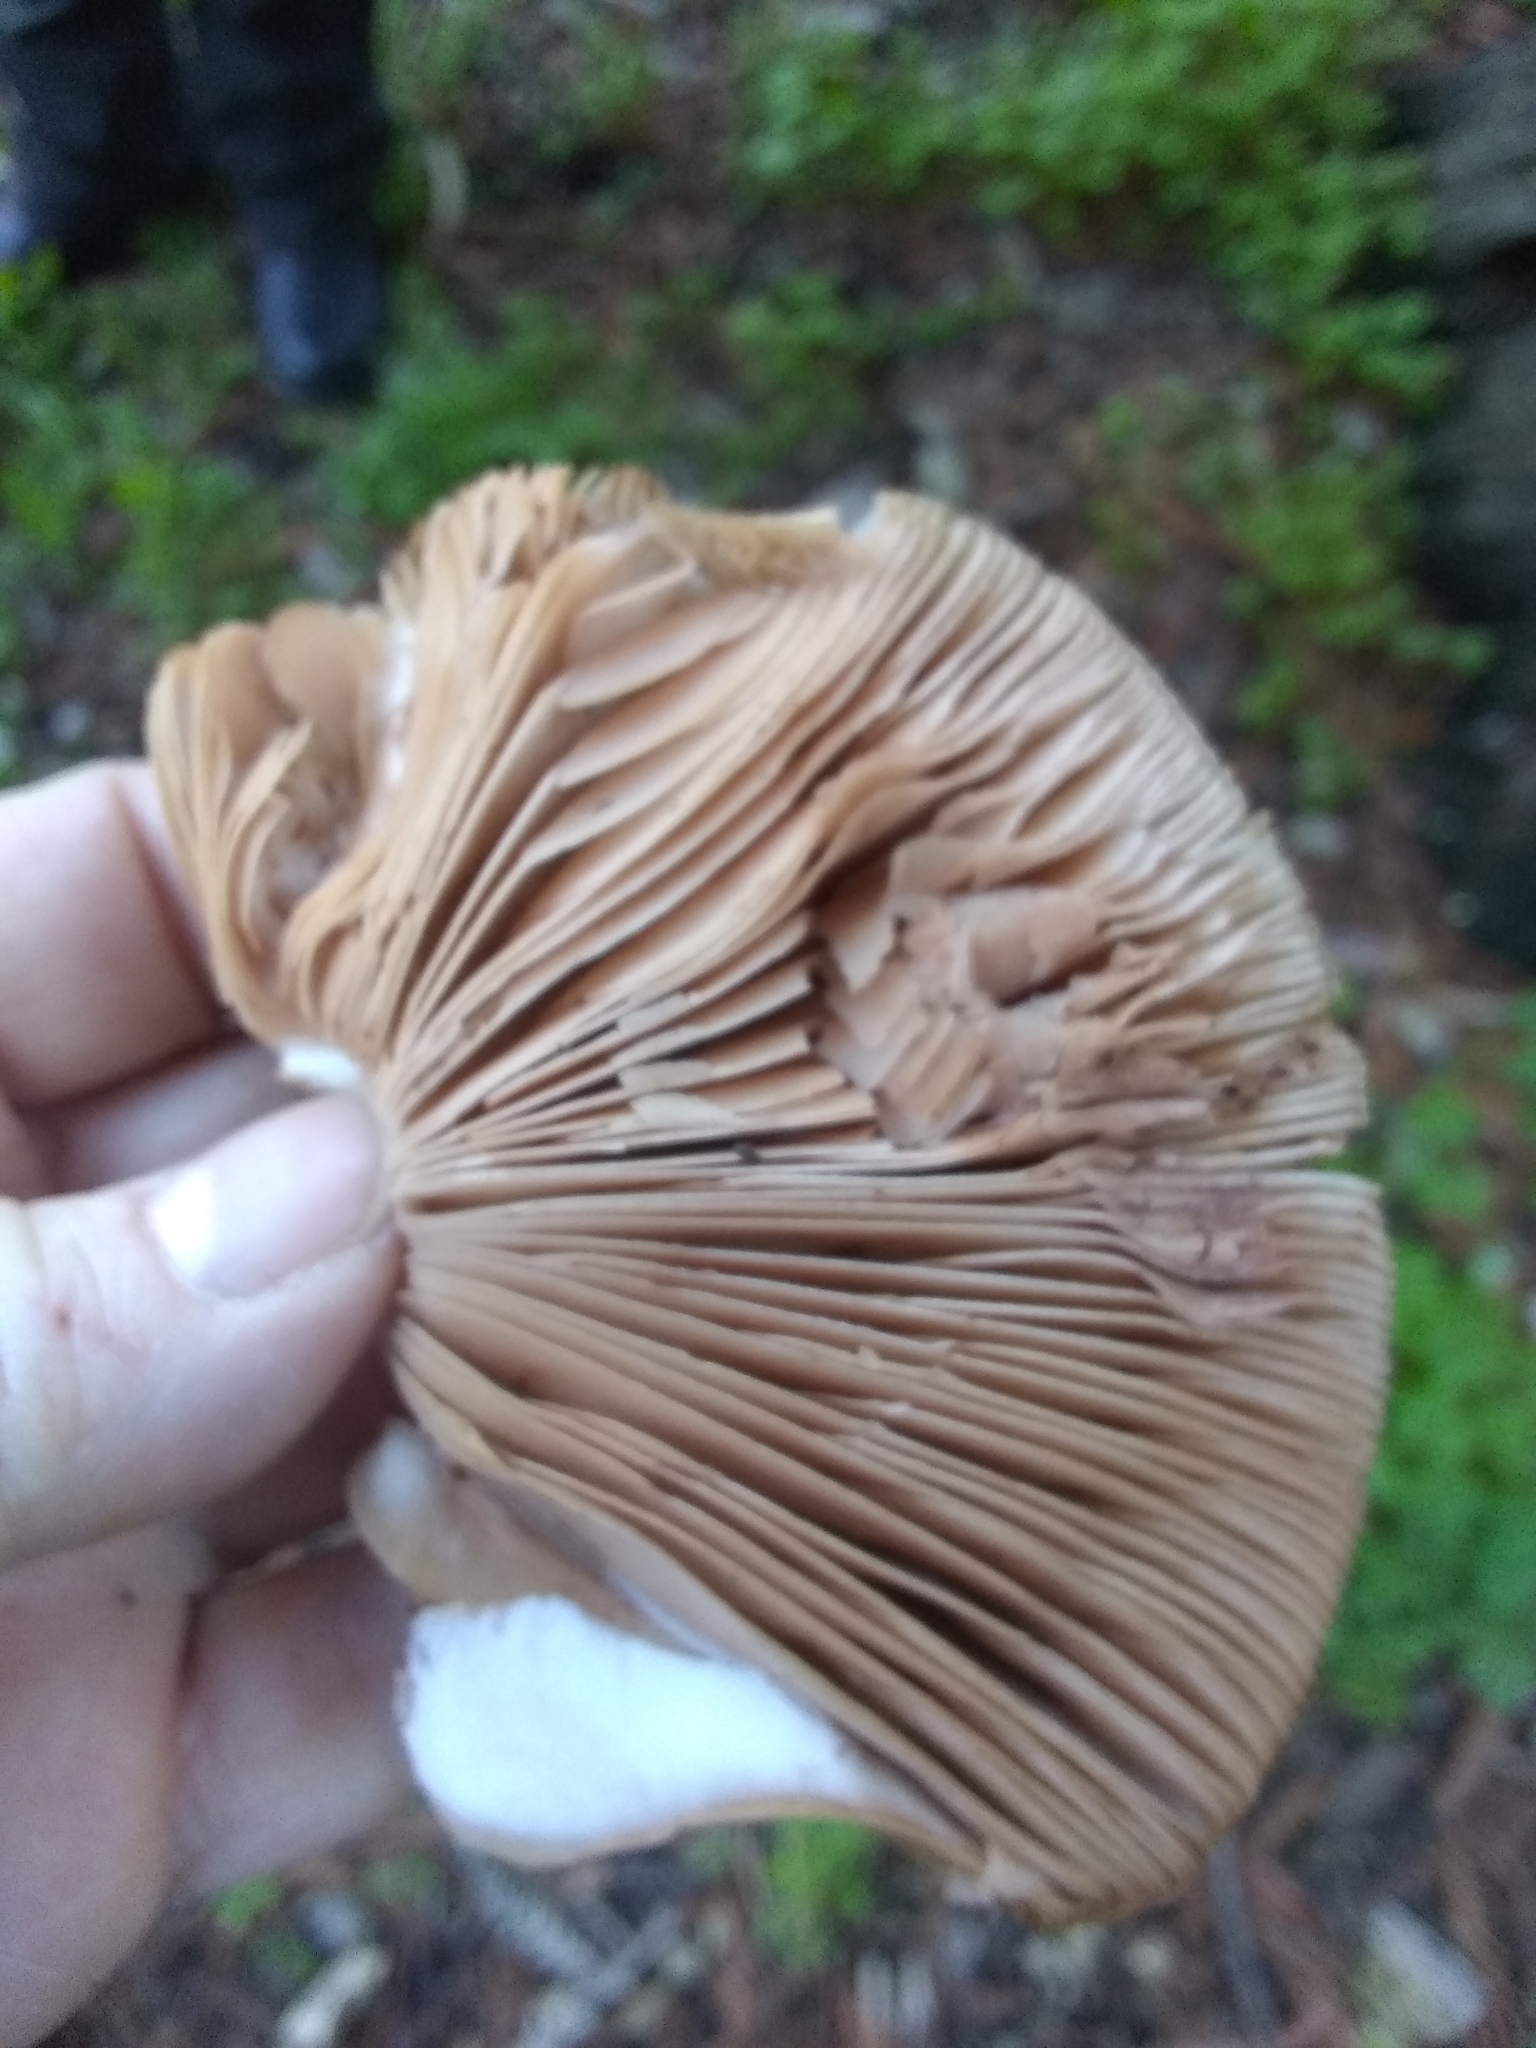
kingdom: Fungi
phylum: Basidiomycota
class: Agaricomycetes
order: Agaricales
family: Pluteaceae
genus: Pluteus
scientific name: Pluteus exilis
